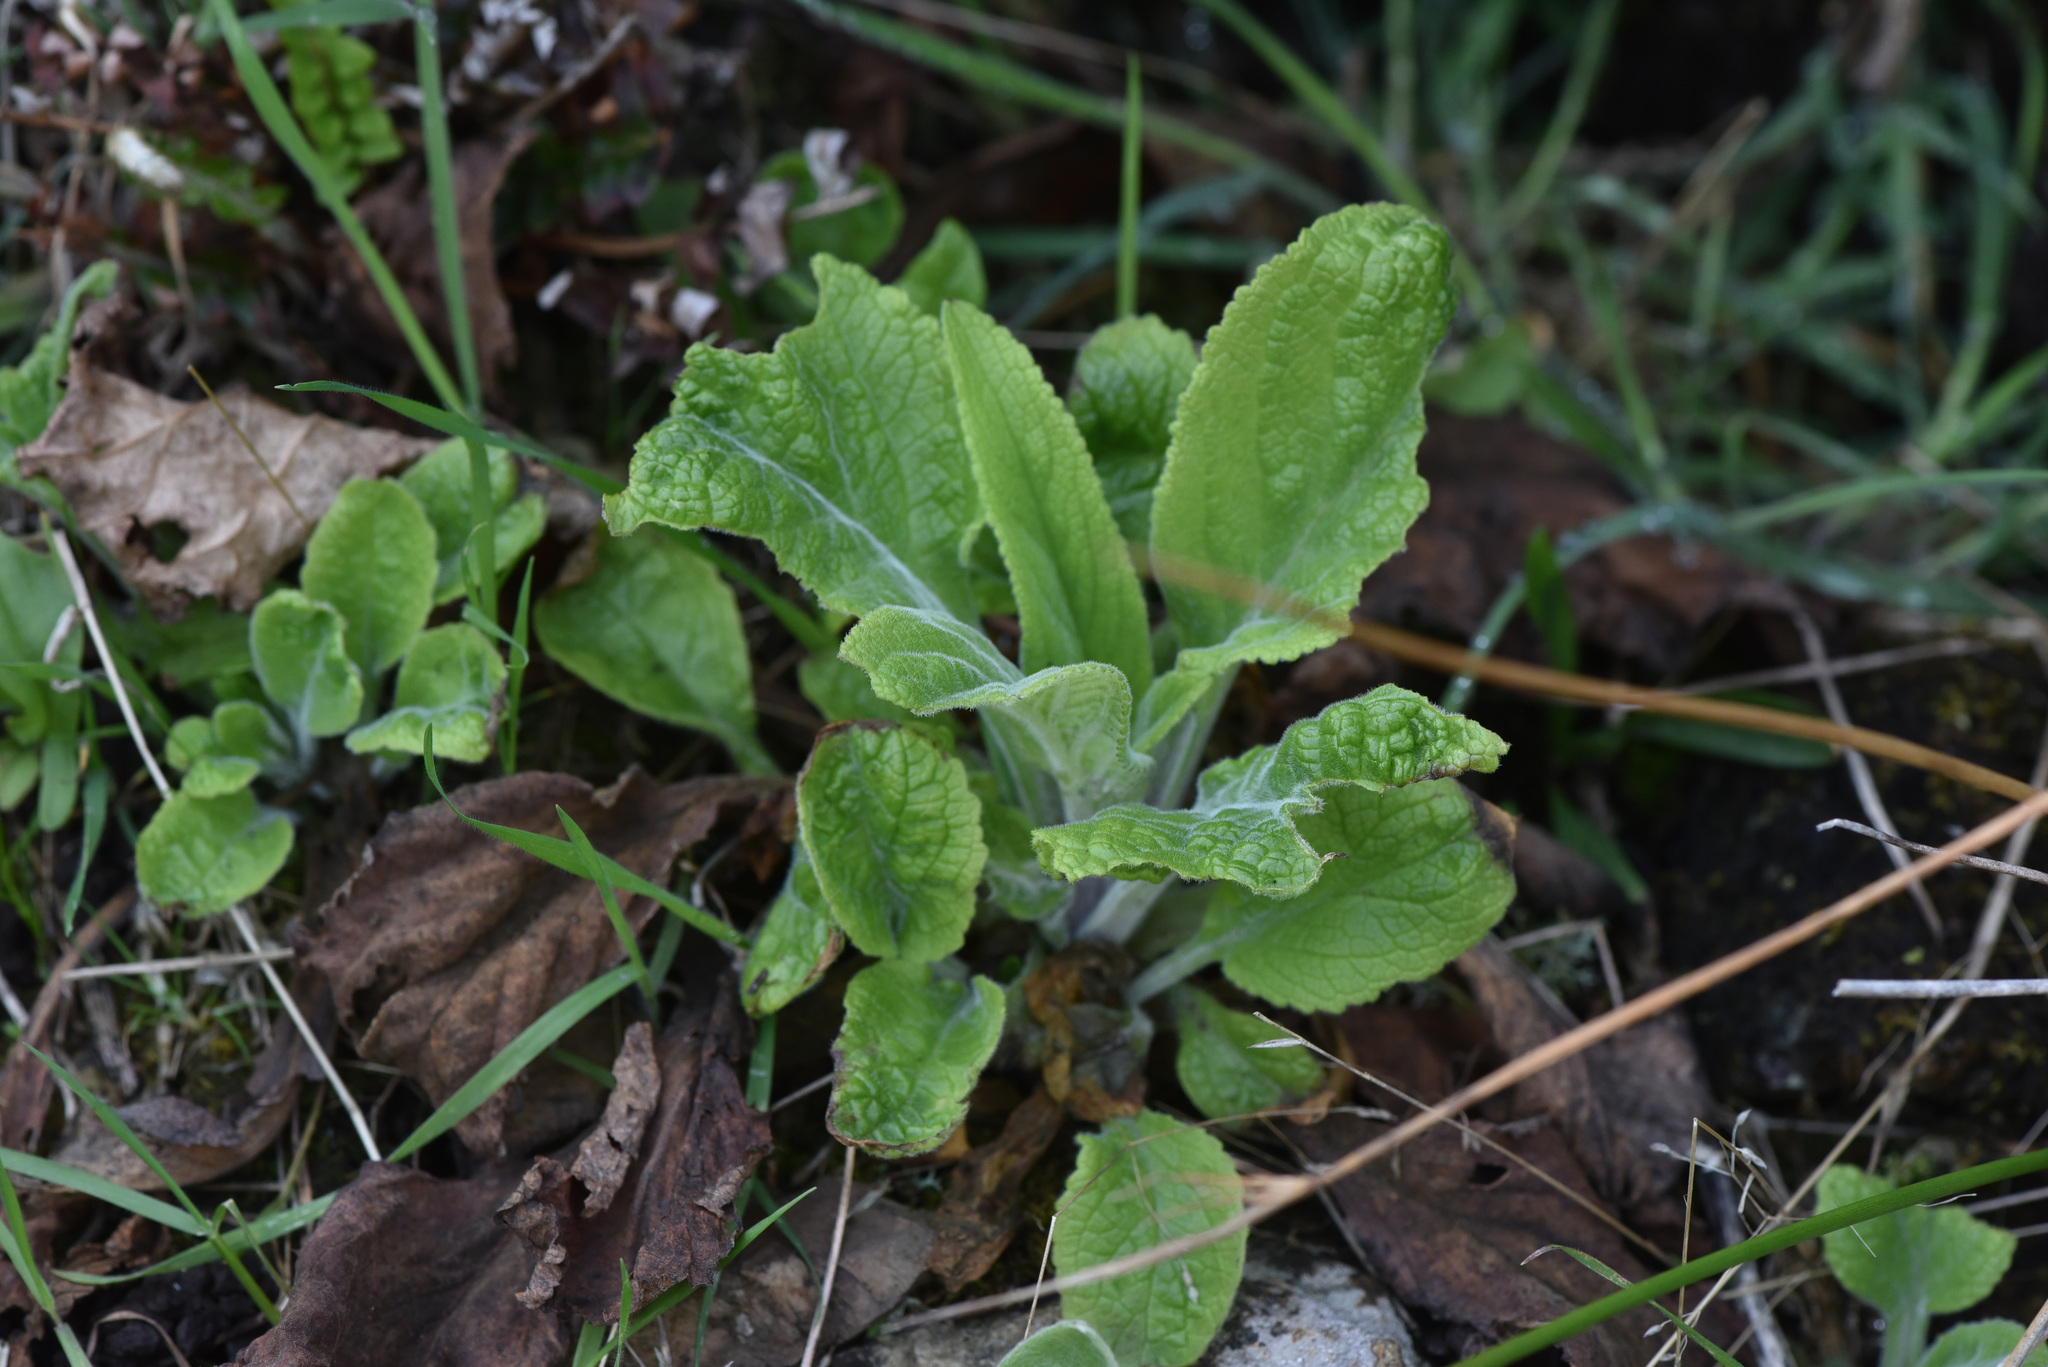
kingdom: Plantae
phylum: Tracheophyta
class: Magnoliopsida
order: Lamiales
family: Plantaginaceae
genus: Digitalis
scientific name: Digitalis purpurea
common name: Foxglove
